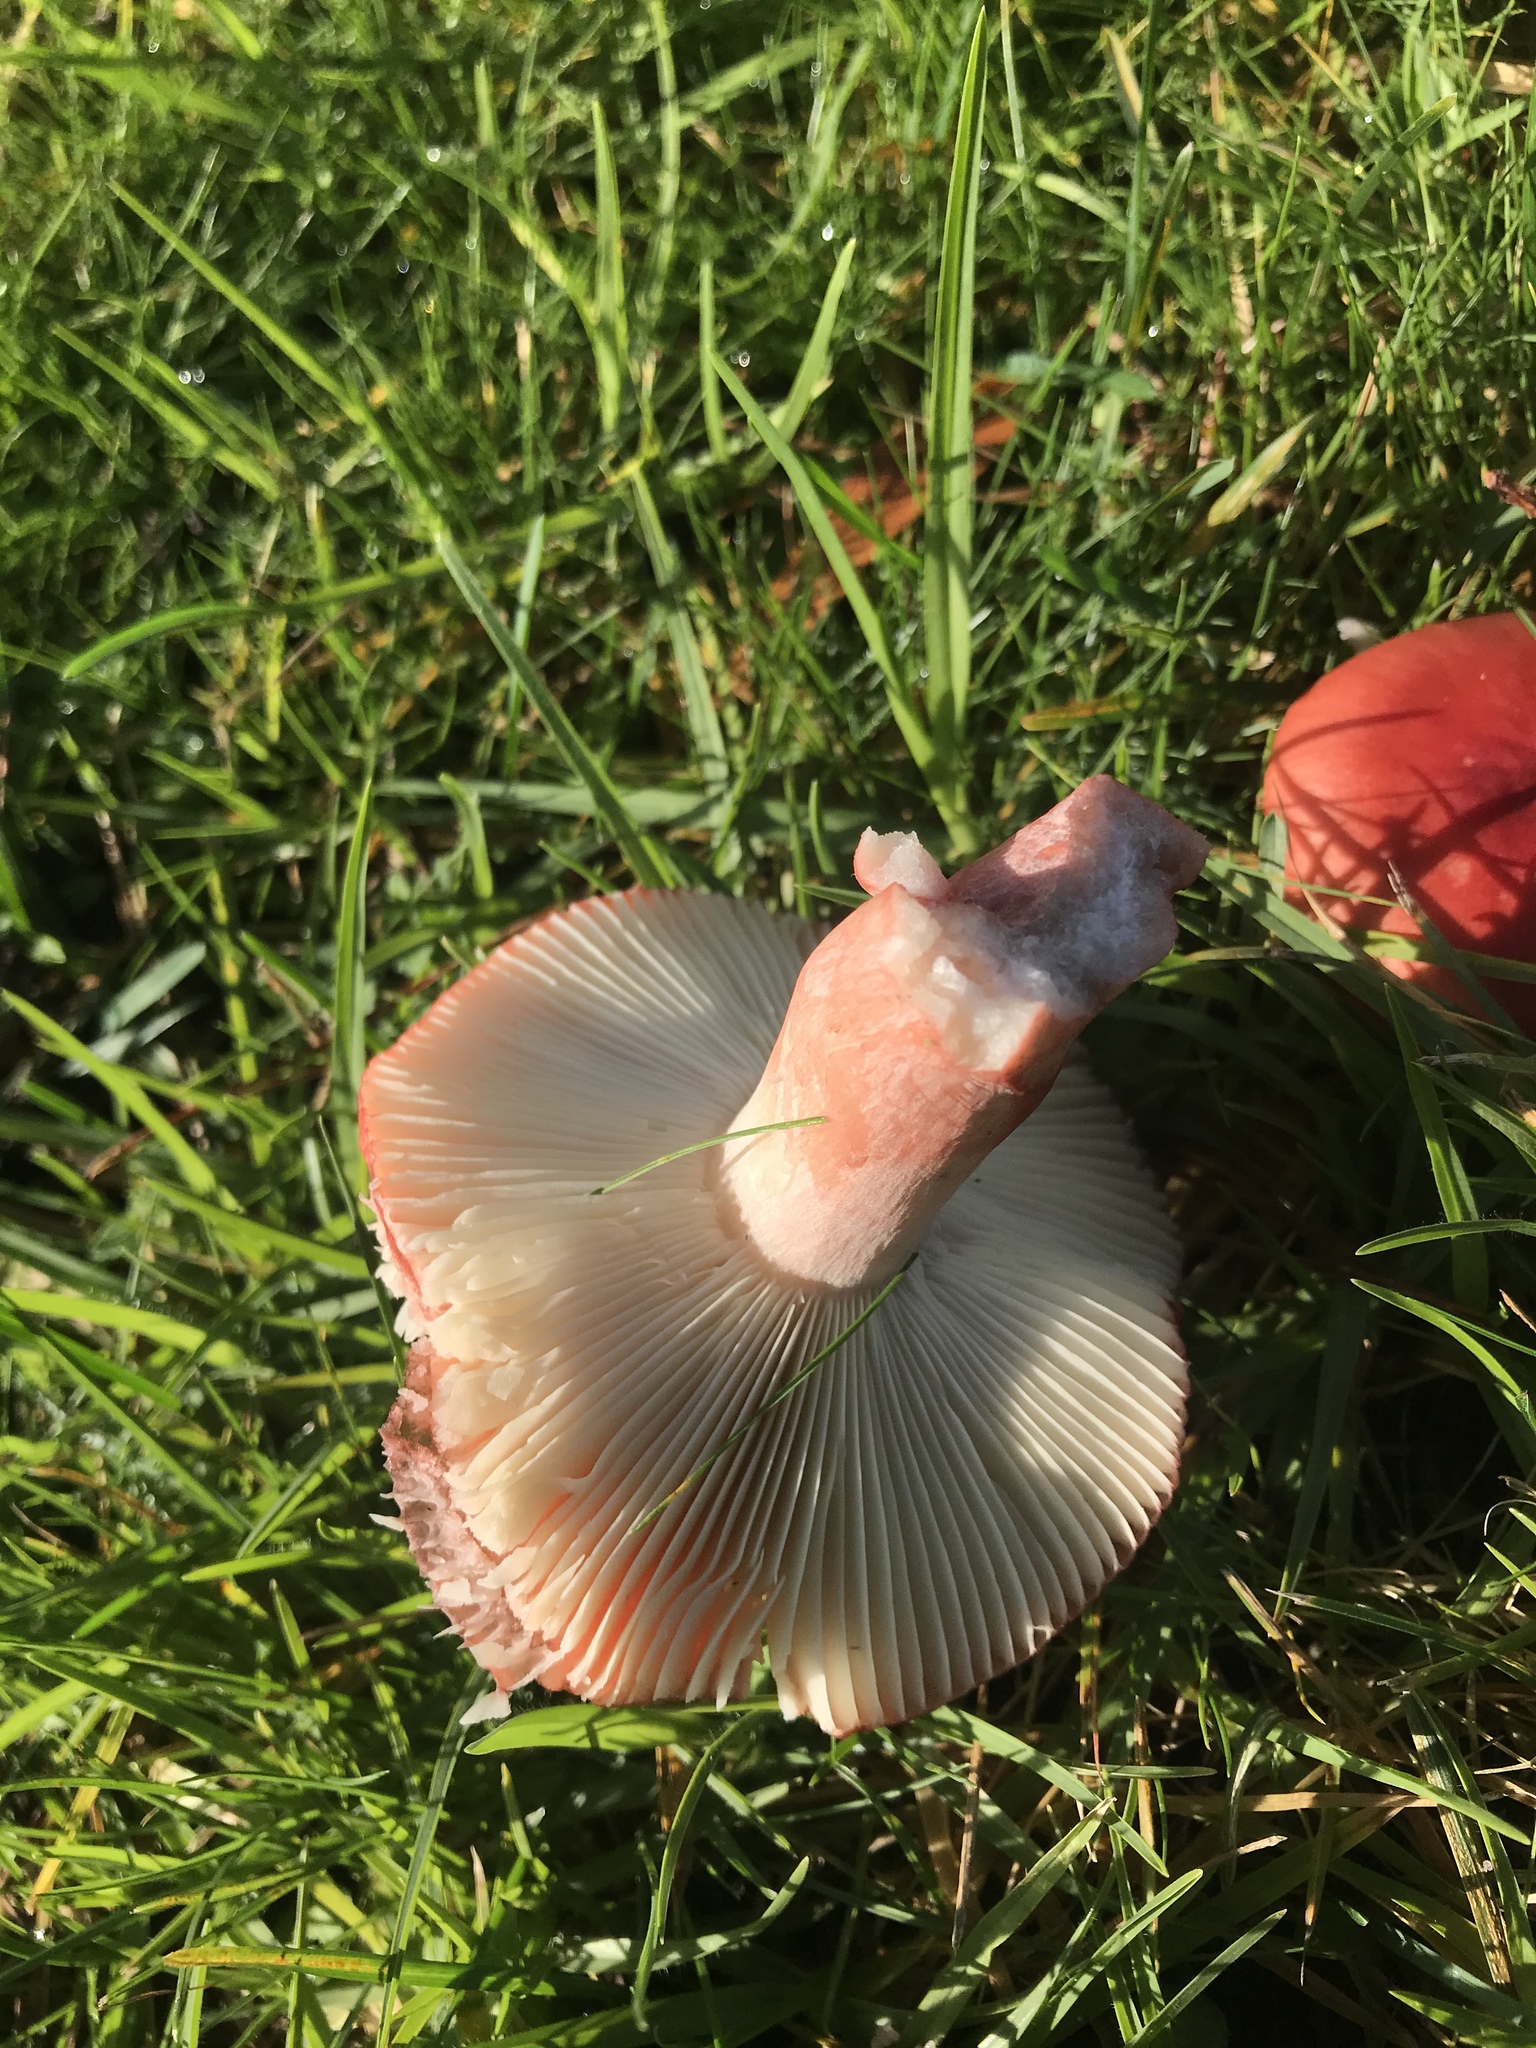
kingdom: Fungi
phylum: Basidiomycota
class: Agaricomycetes
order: Russulales
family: Russulaceae
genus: Russula
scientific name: Russula rhodocephala
